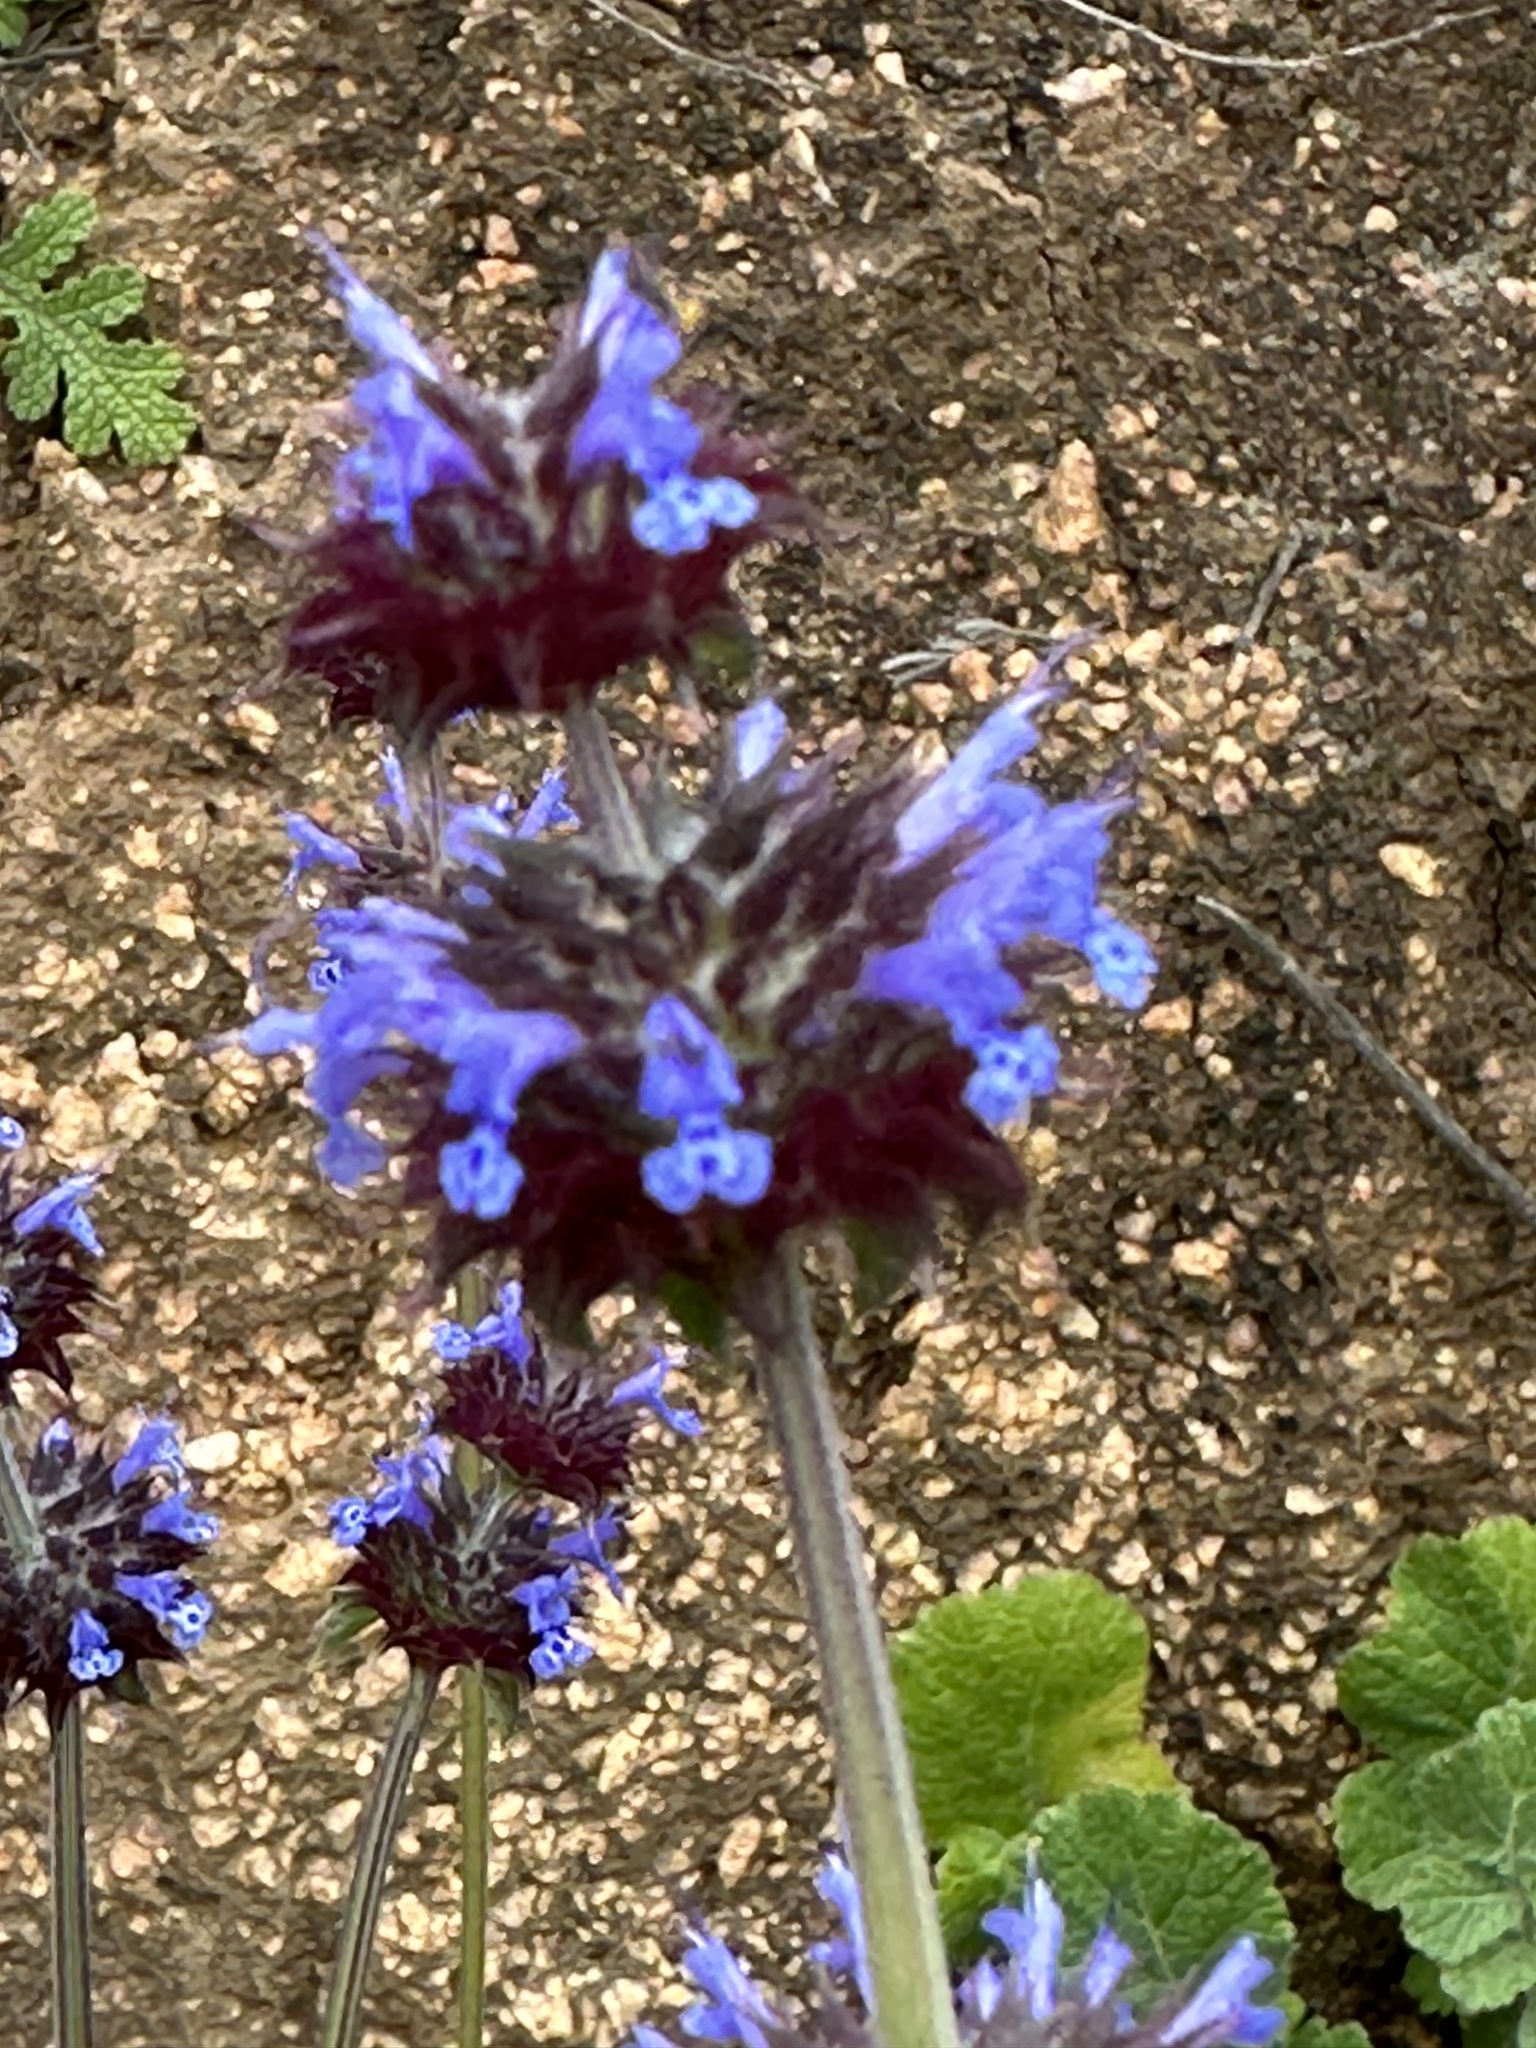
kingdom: Plantae
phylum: Tracheophyta
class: Magnoliopsida
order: Lamiales
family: Lamiaceae
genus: Salvia
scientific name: Salvia columbariae
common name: Chia
